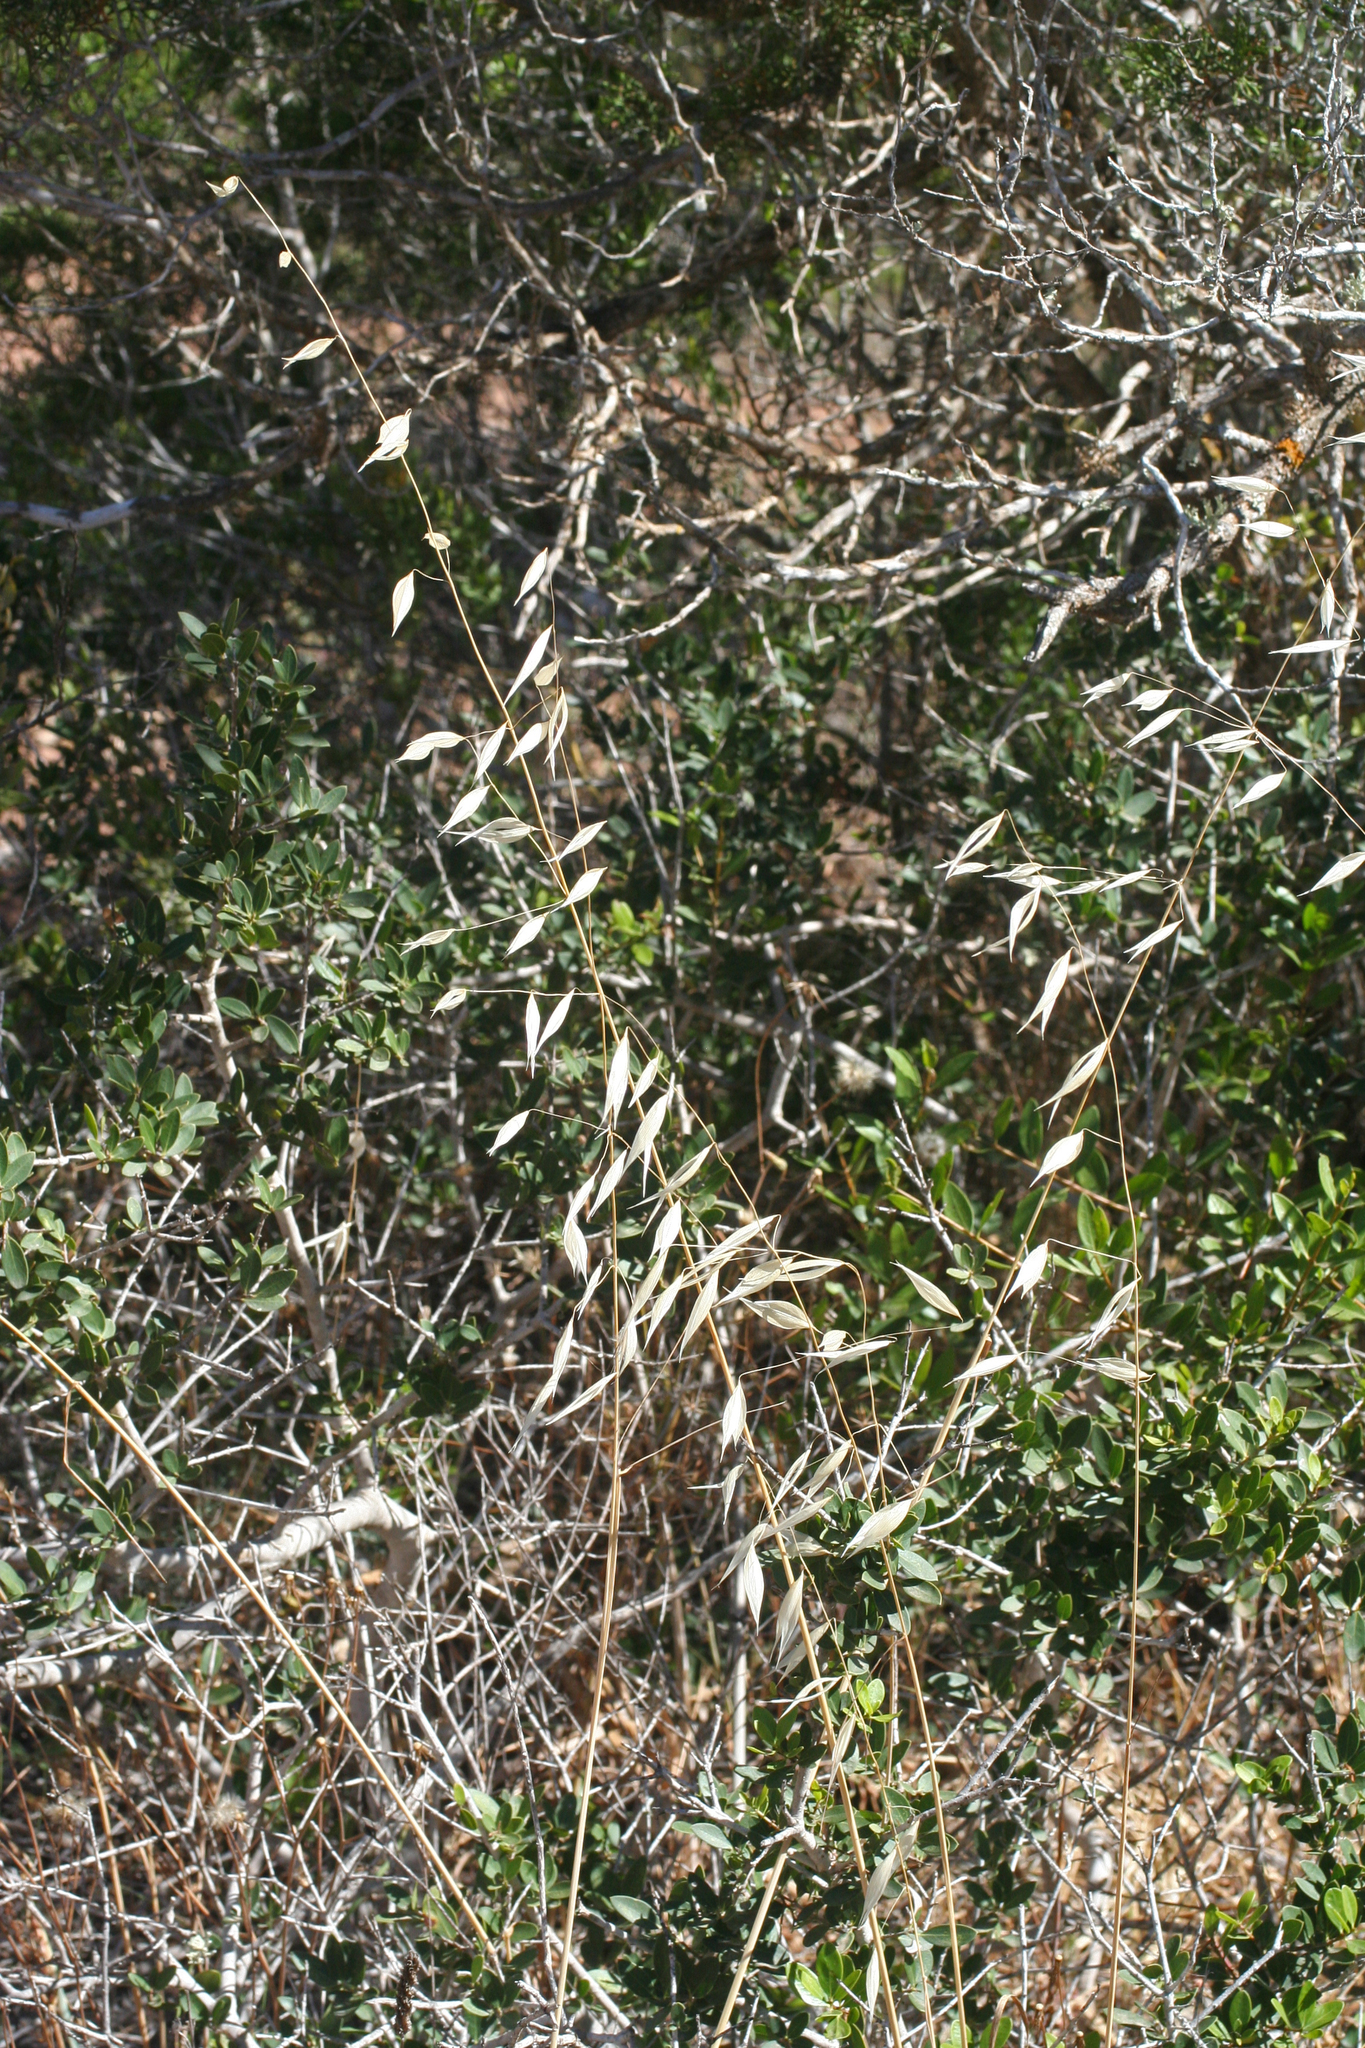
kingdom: Plantae
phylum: Tracheophyta
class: Liliopsida
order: Poales
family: Poaceae
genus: Avena
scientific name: Avena
